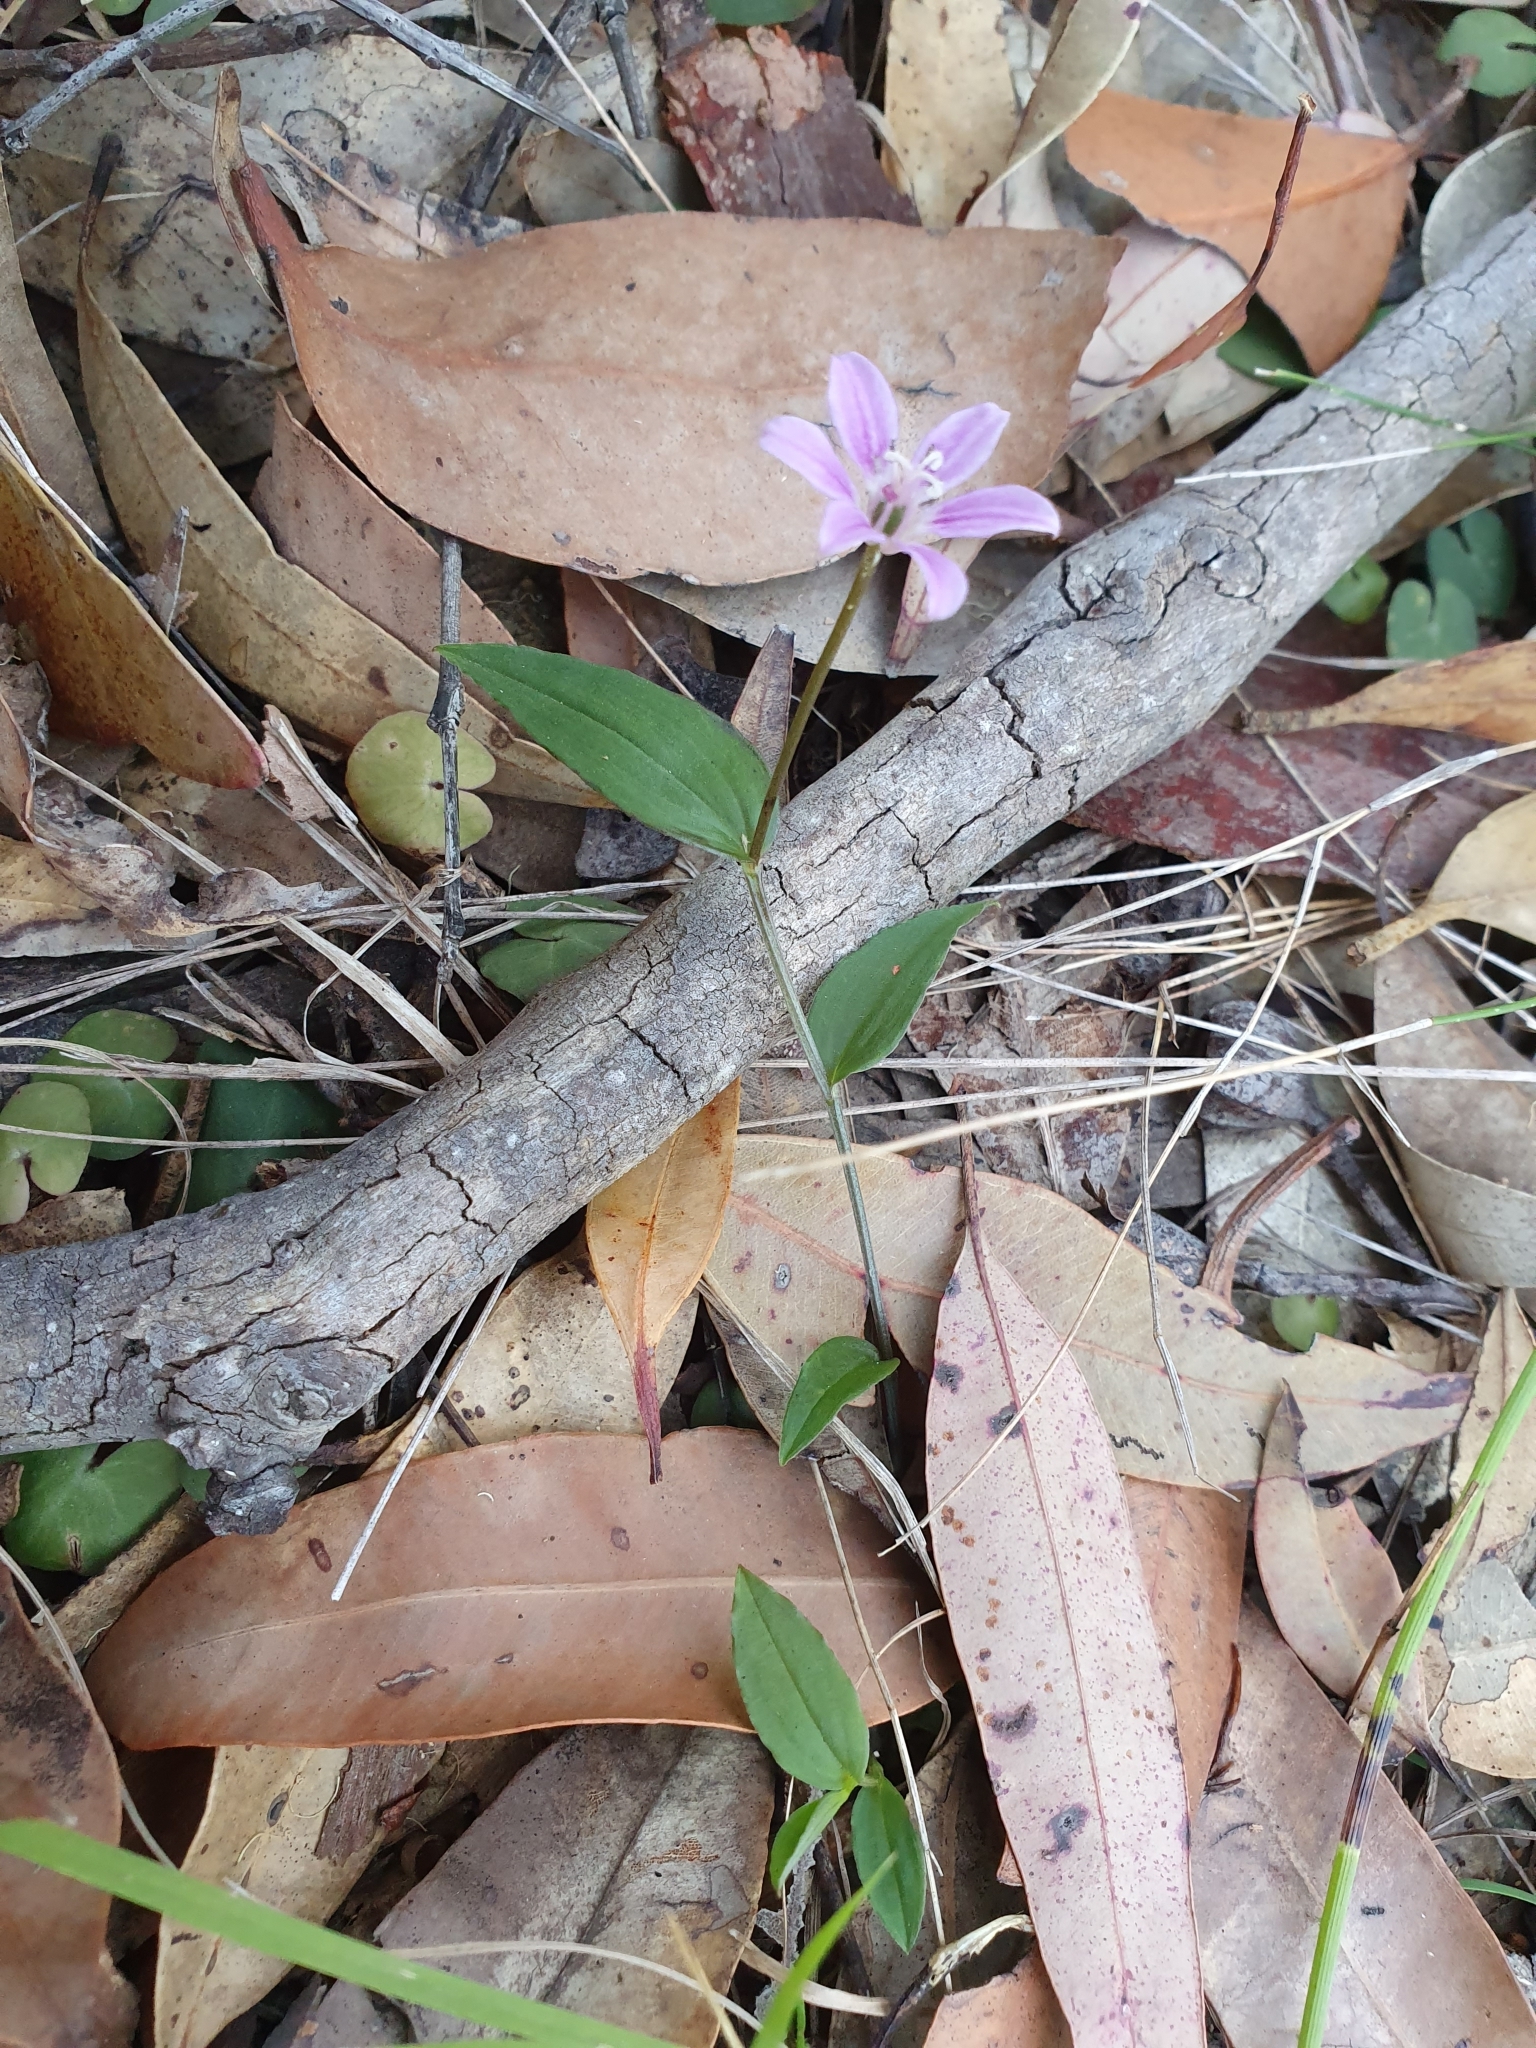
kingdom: Plantae
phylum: Tracheophyta
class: Liliopsida
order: Liliales
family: Colchicaceae
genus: Schelhammera
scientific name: Schelhammera undulata
